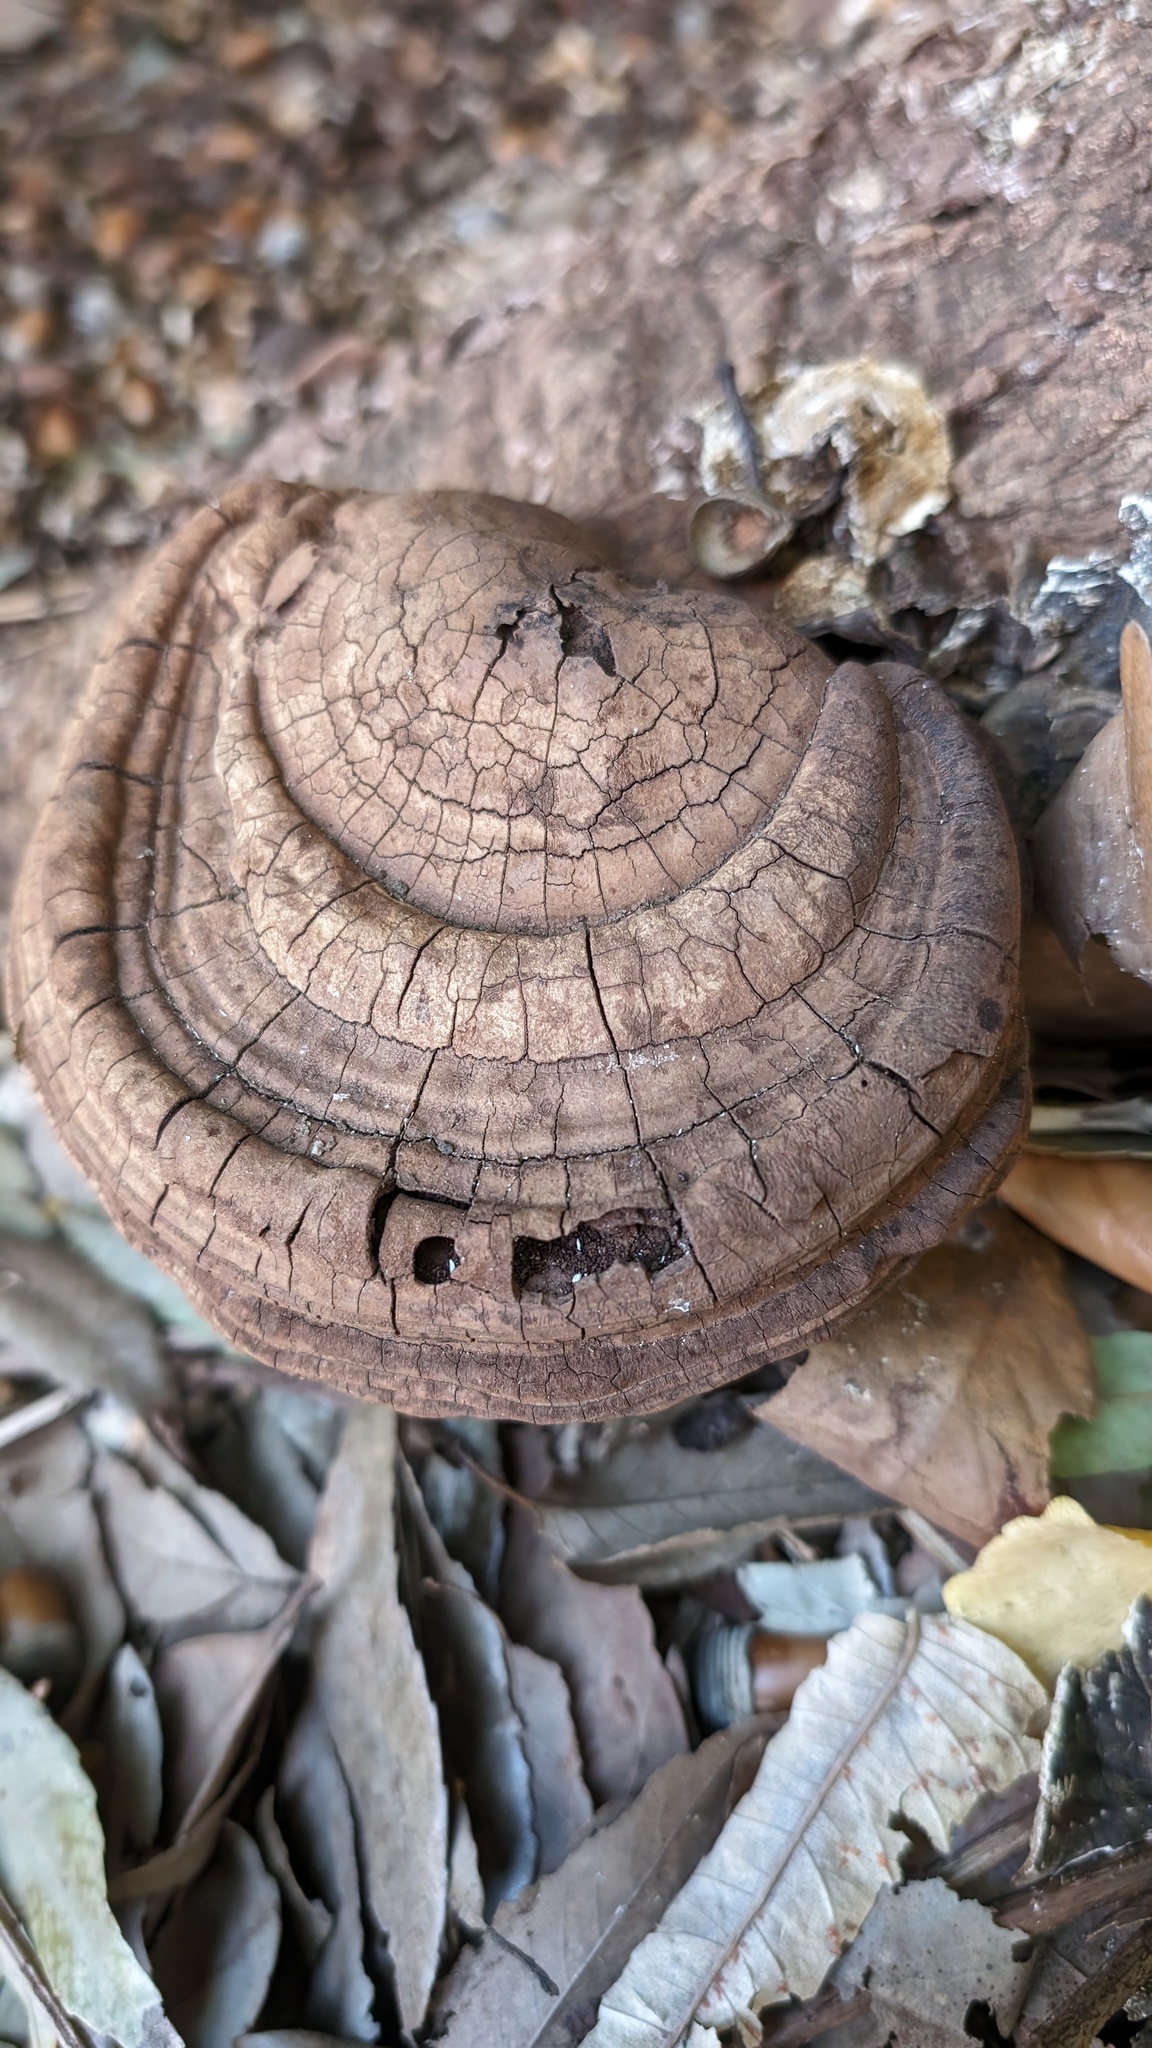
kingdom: Fungi
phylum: Basidiomycota
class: Agaricomycetes
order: Polyporales
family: Polyporaceae
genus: Ganoderma
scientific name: Ganoderma applanatum
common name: Artist's bracket
